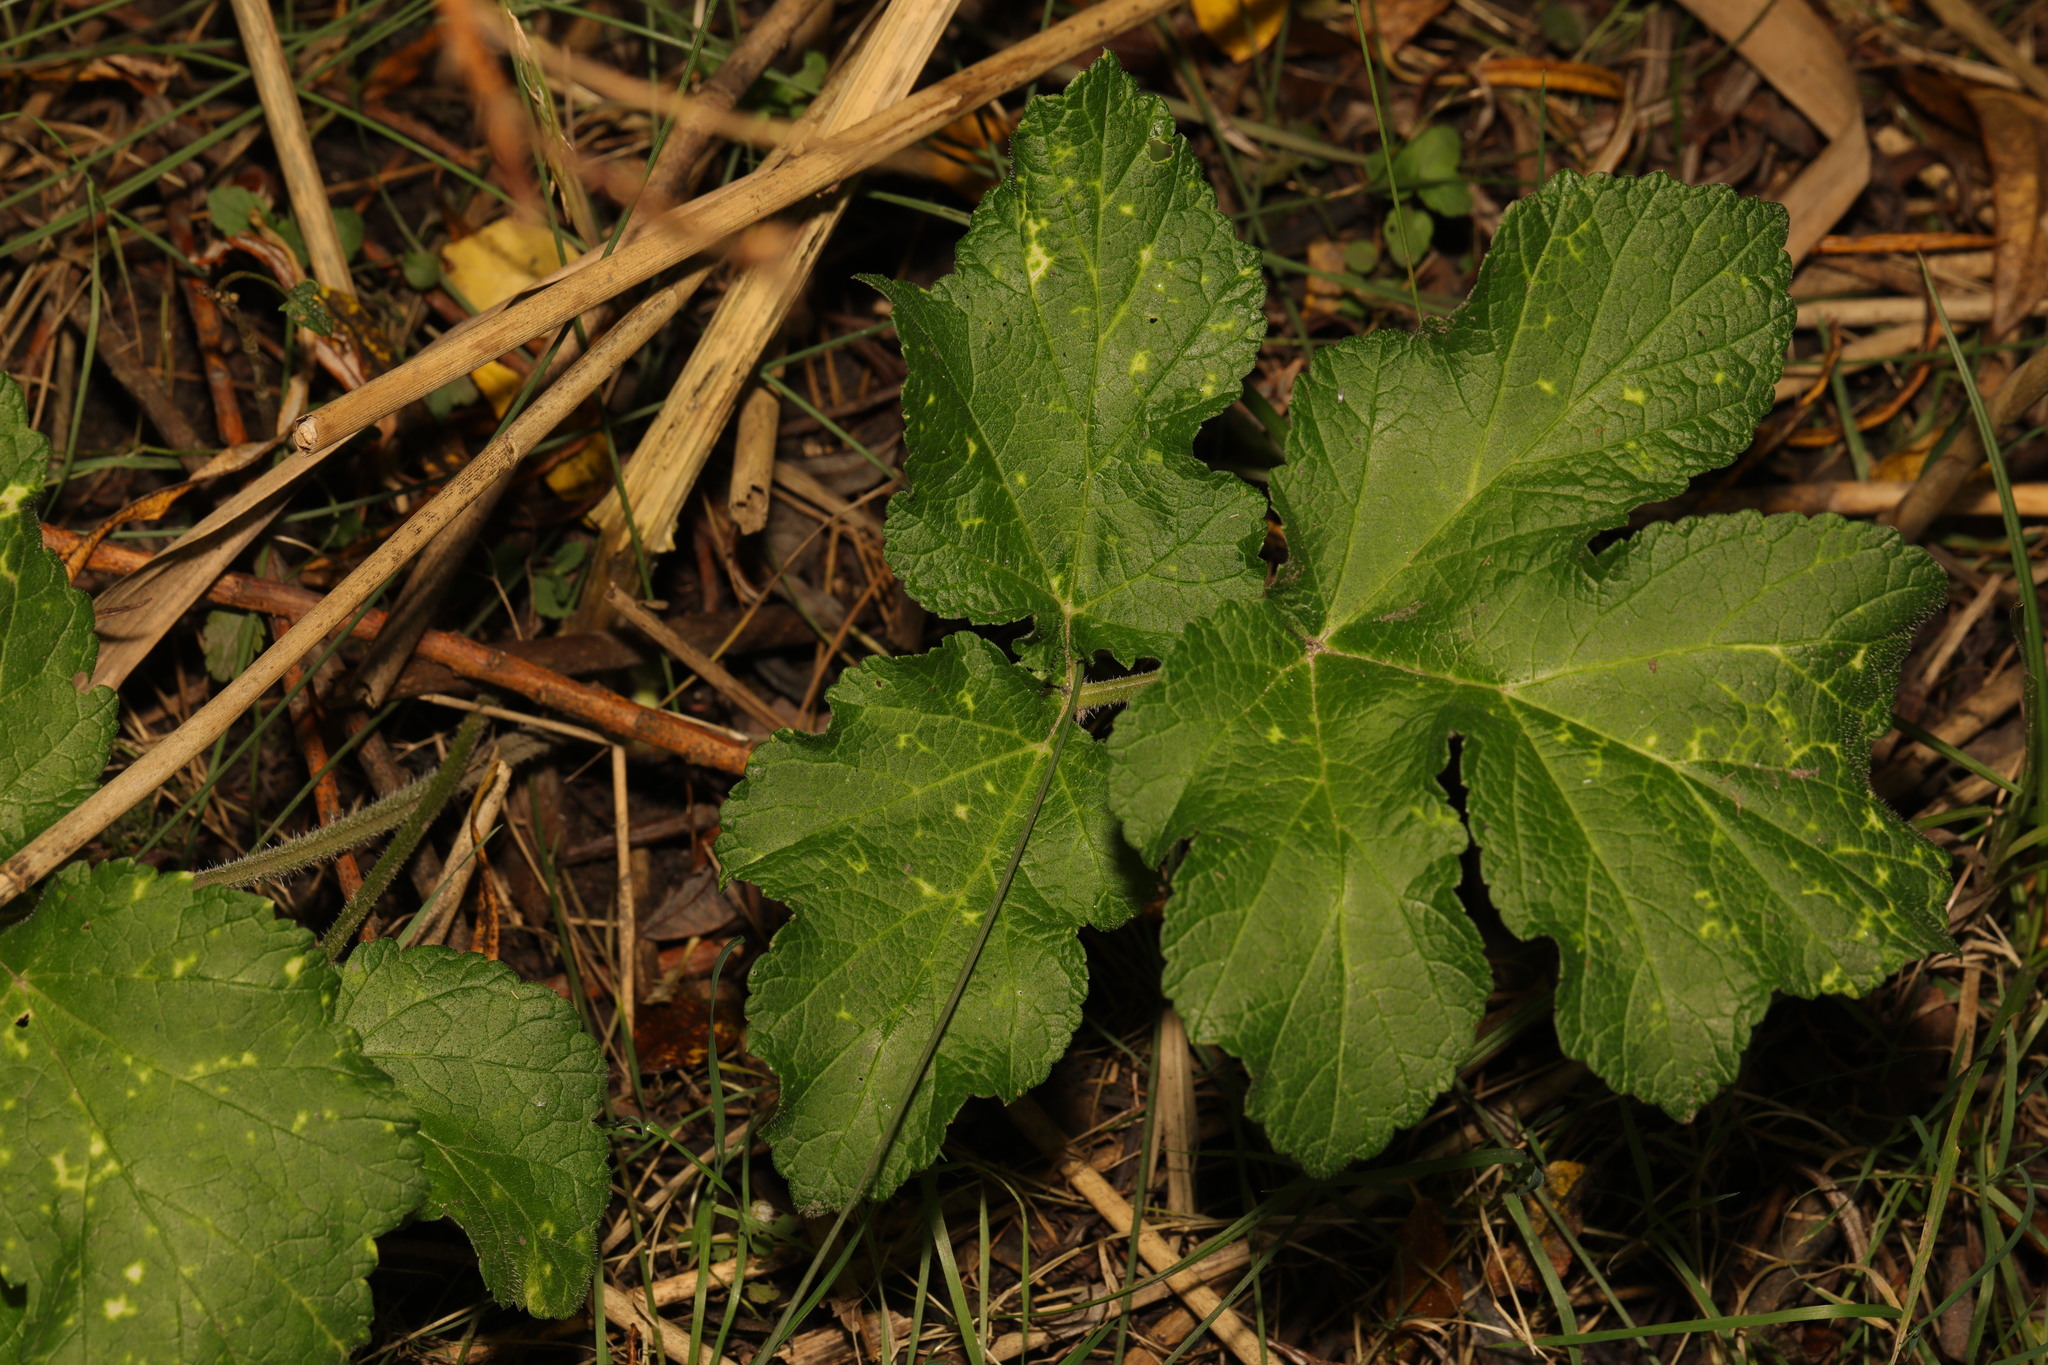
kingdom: Plantae
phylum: Tracheophyta
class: Magnoliopsida
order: Apiales
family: Apiaceae
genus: Heracleum
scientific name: Heracleum sphondylium
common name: Hogweed
